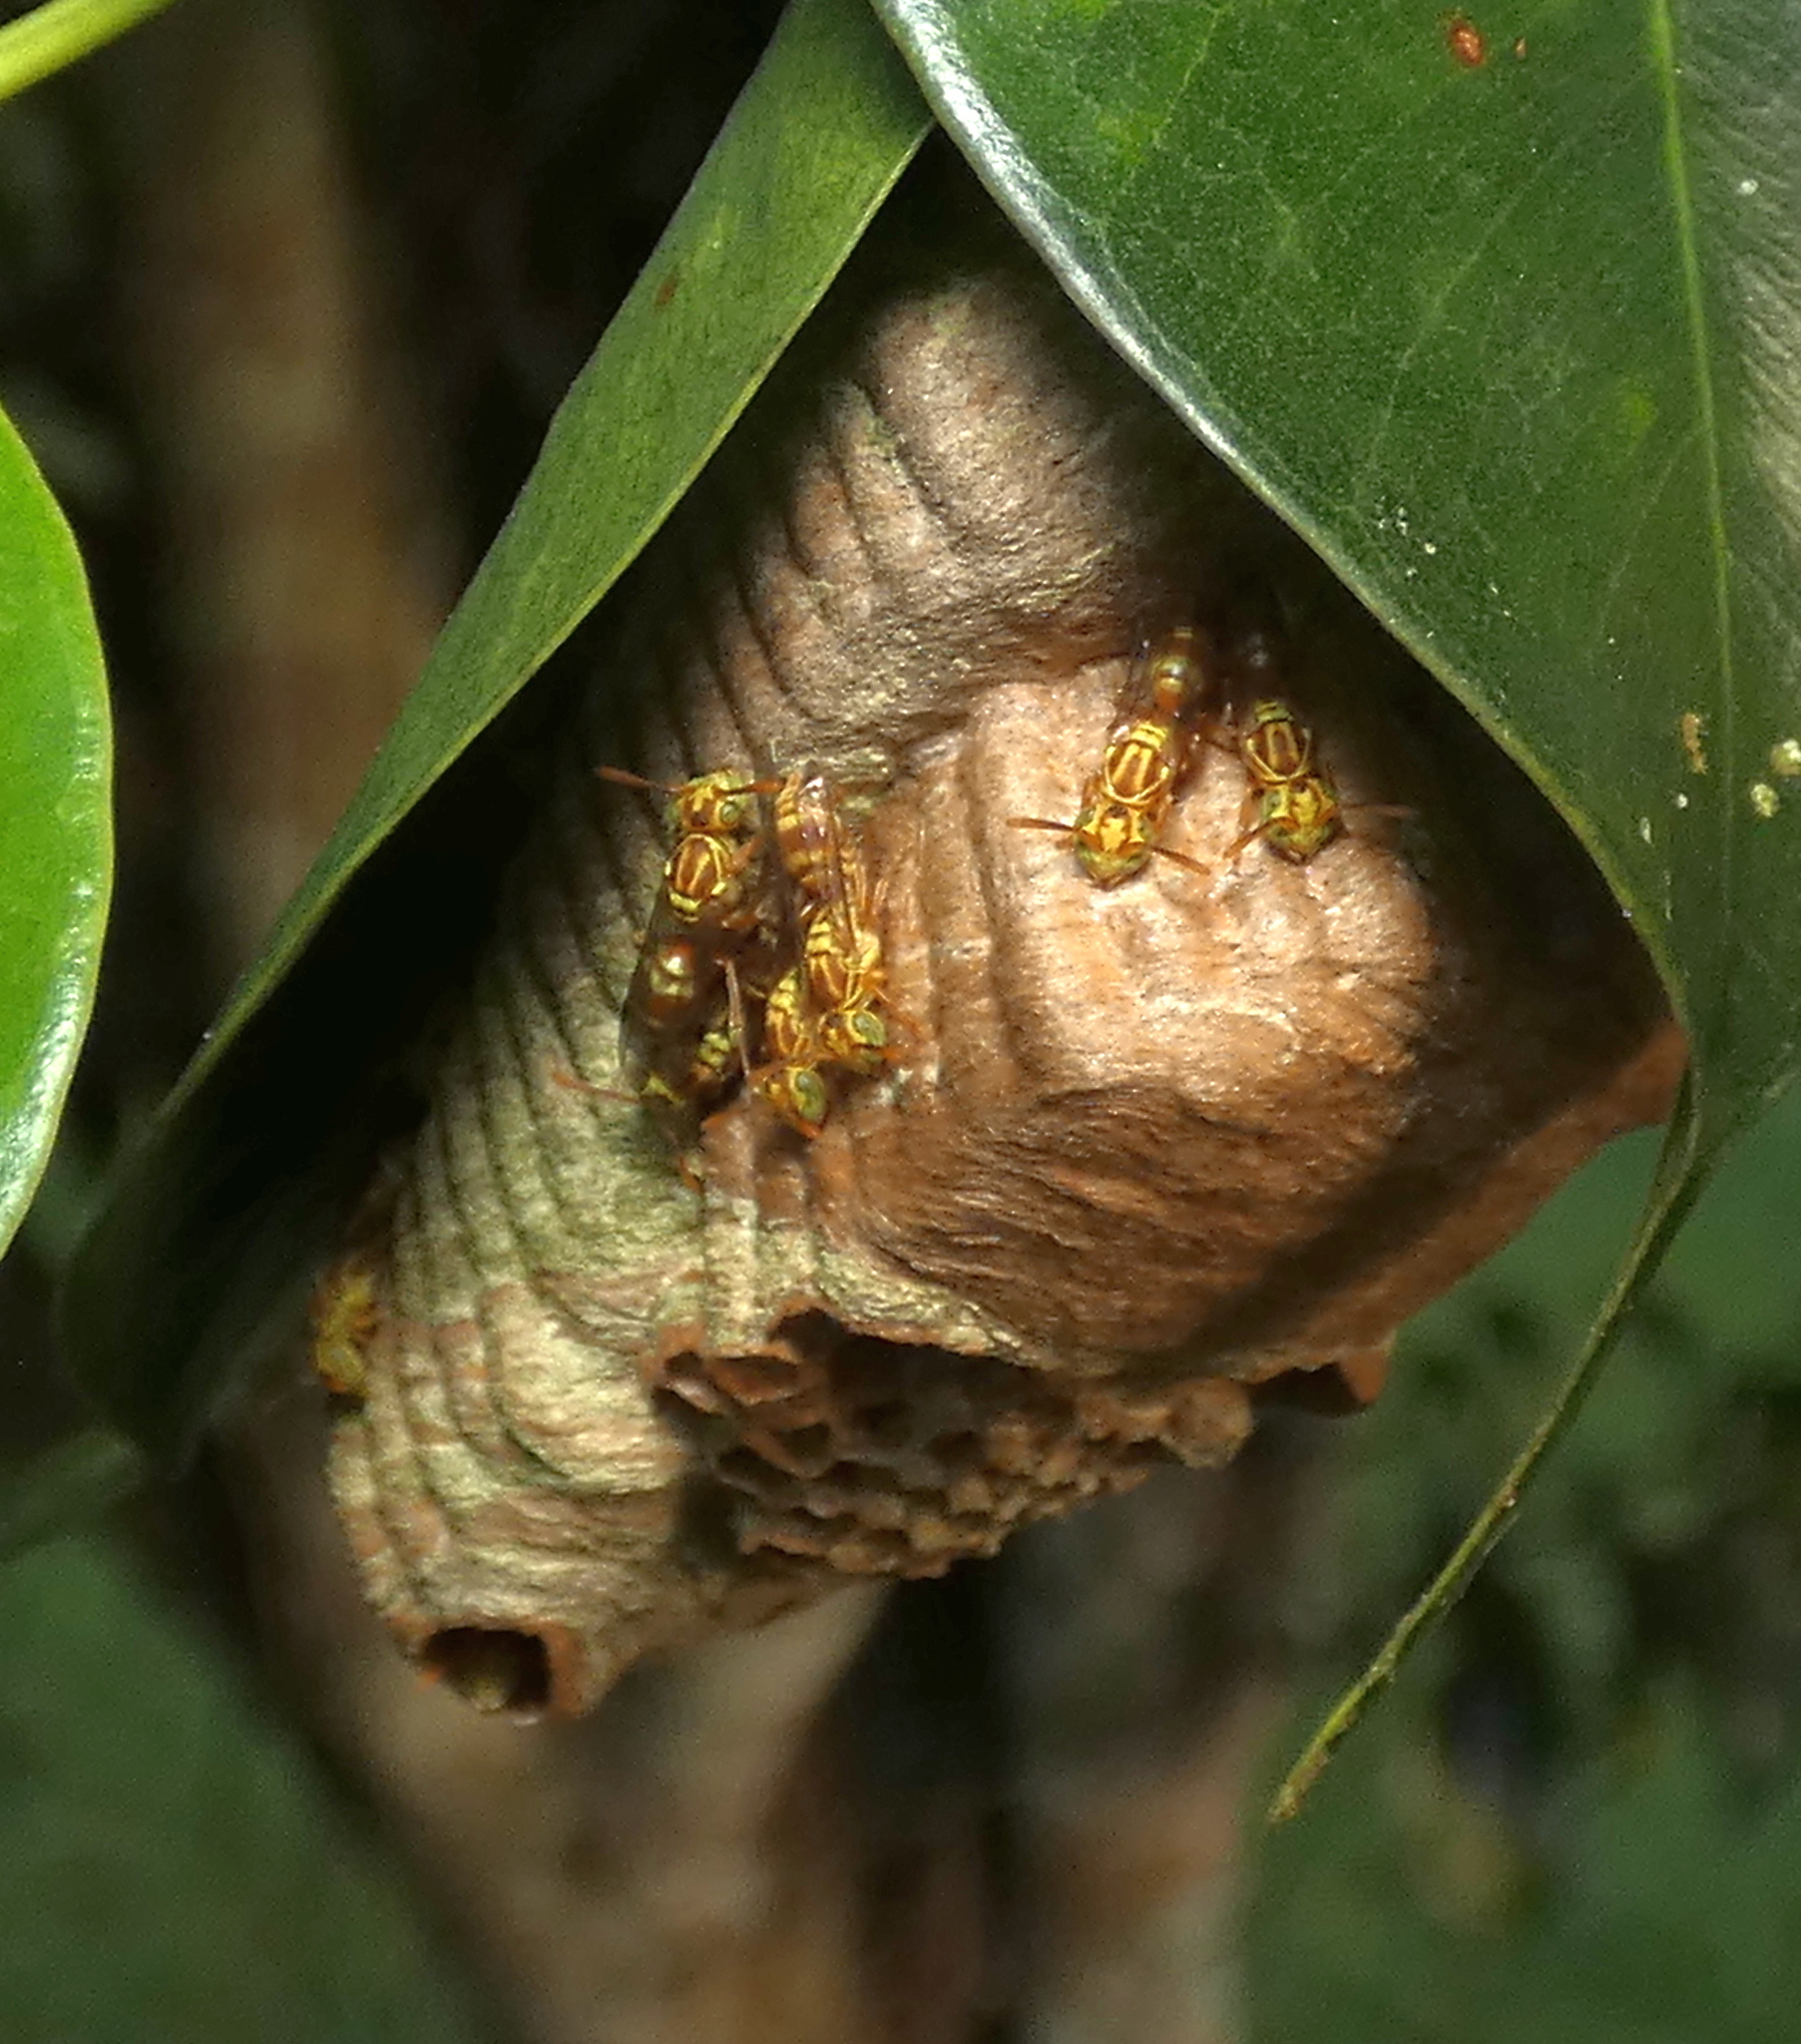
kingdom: Animalia
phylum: Arthropoda
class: Insecta
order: Hymenoptera
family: Vespidae
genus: Protopolybia
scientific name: Protopolybia potiguara
